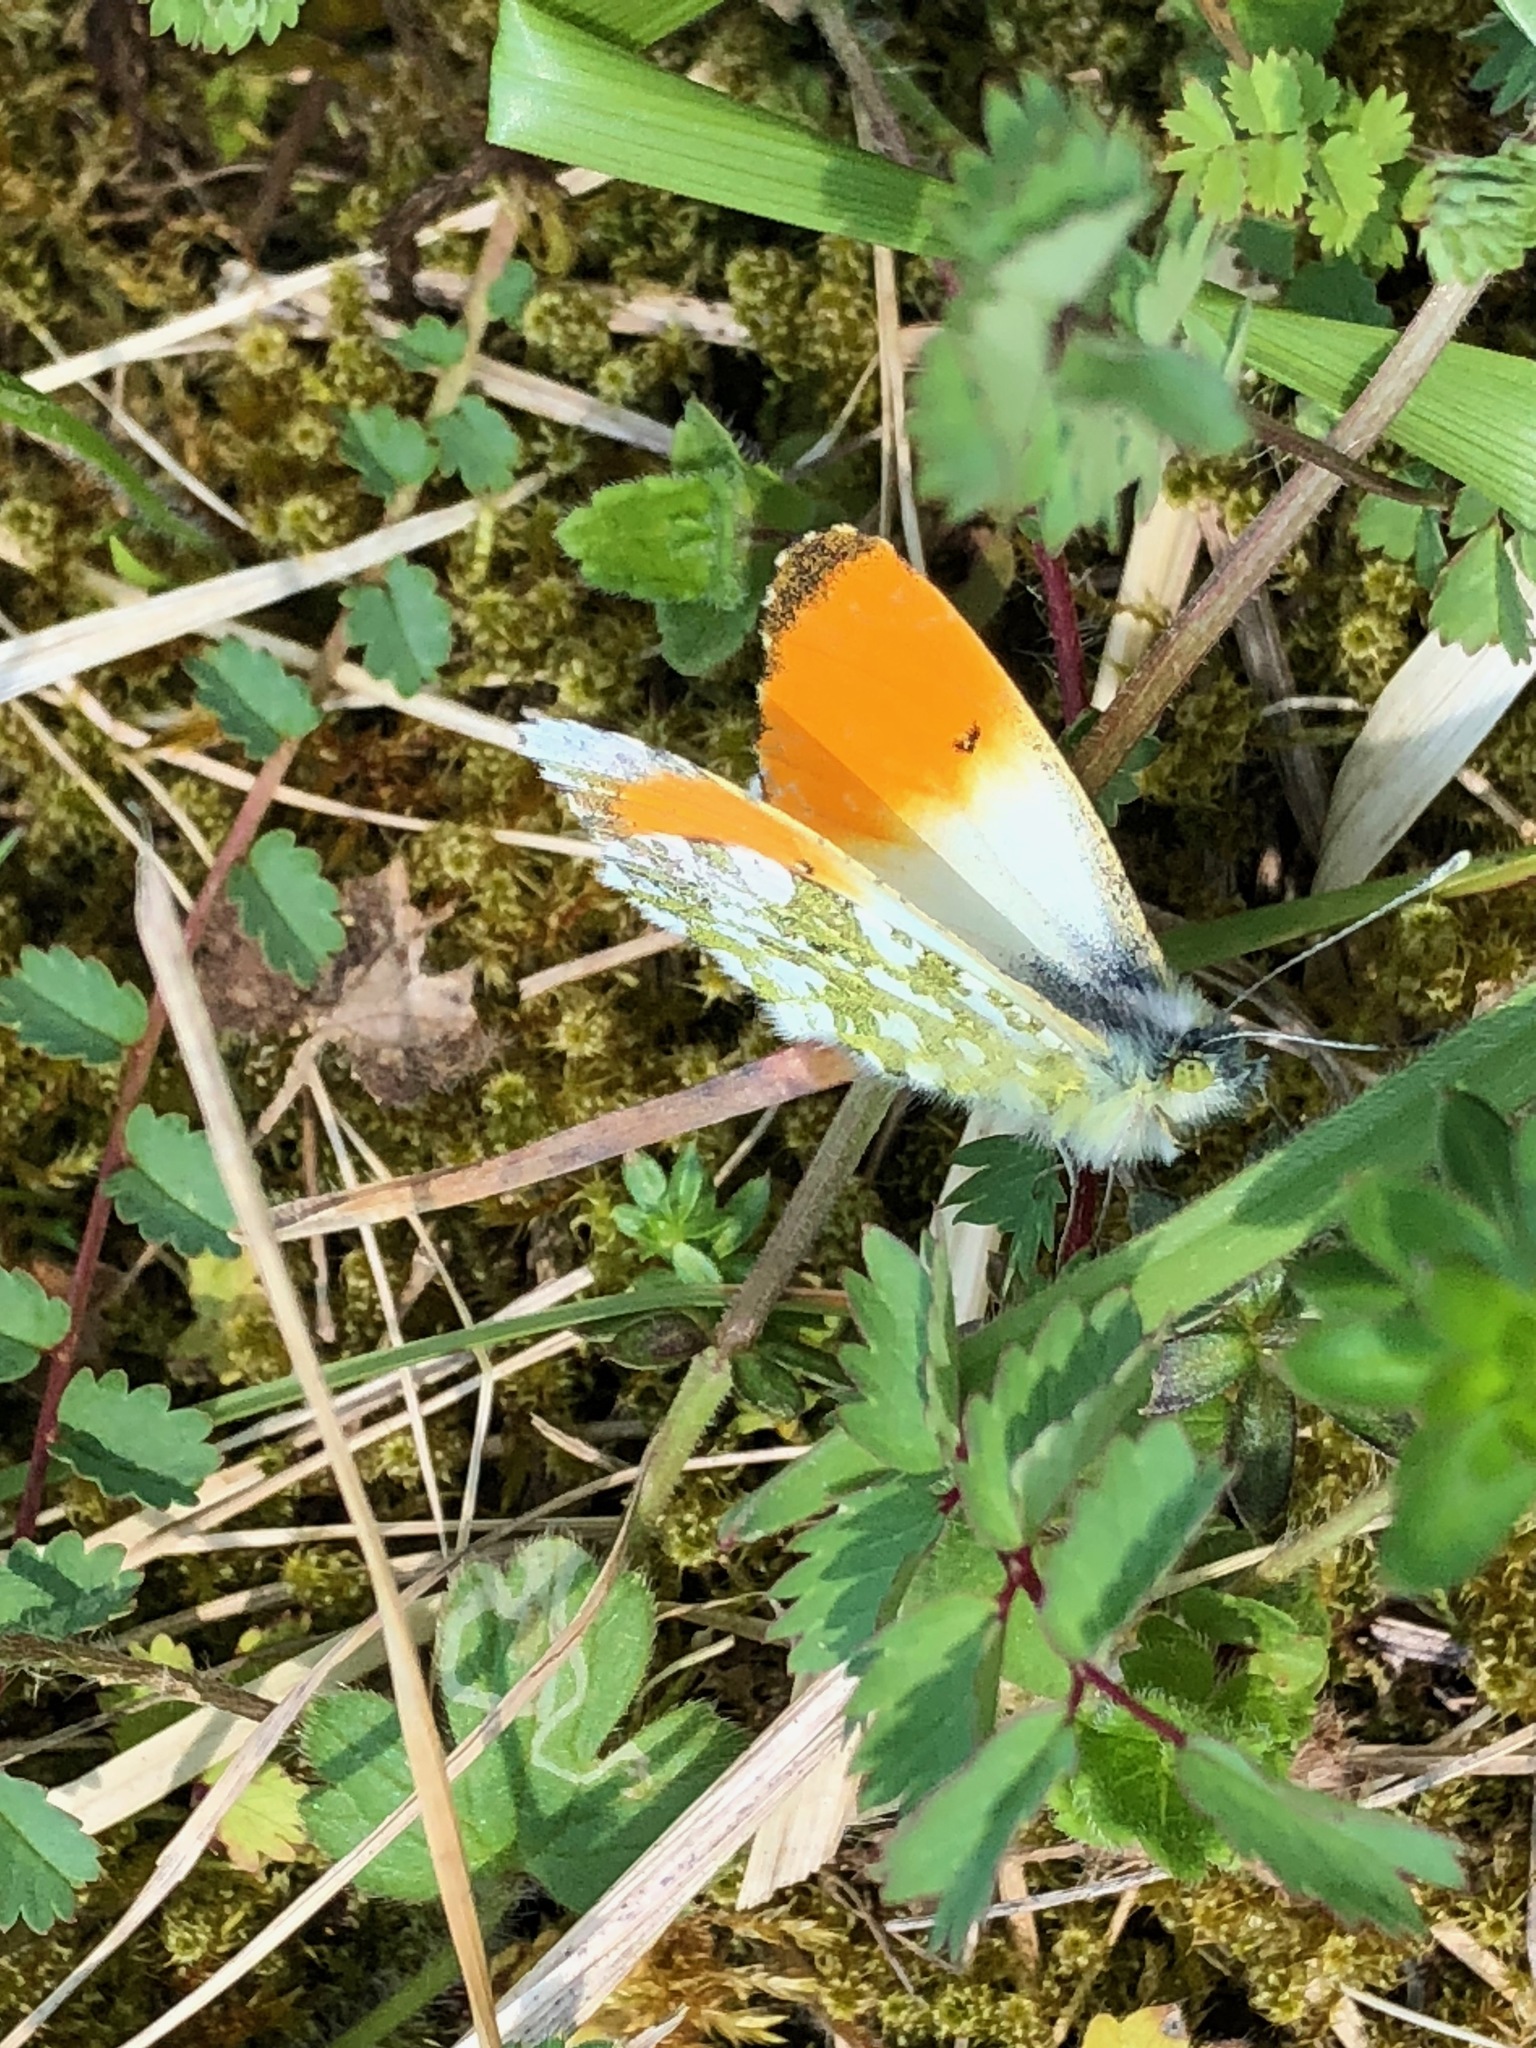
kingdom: Animalia
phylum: Arthropoda
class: Insecta
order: Lepidoptera
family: Pieridae
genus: Anthocharis
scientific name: Anthocharis cardamines
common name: Orange-tip
